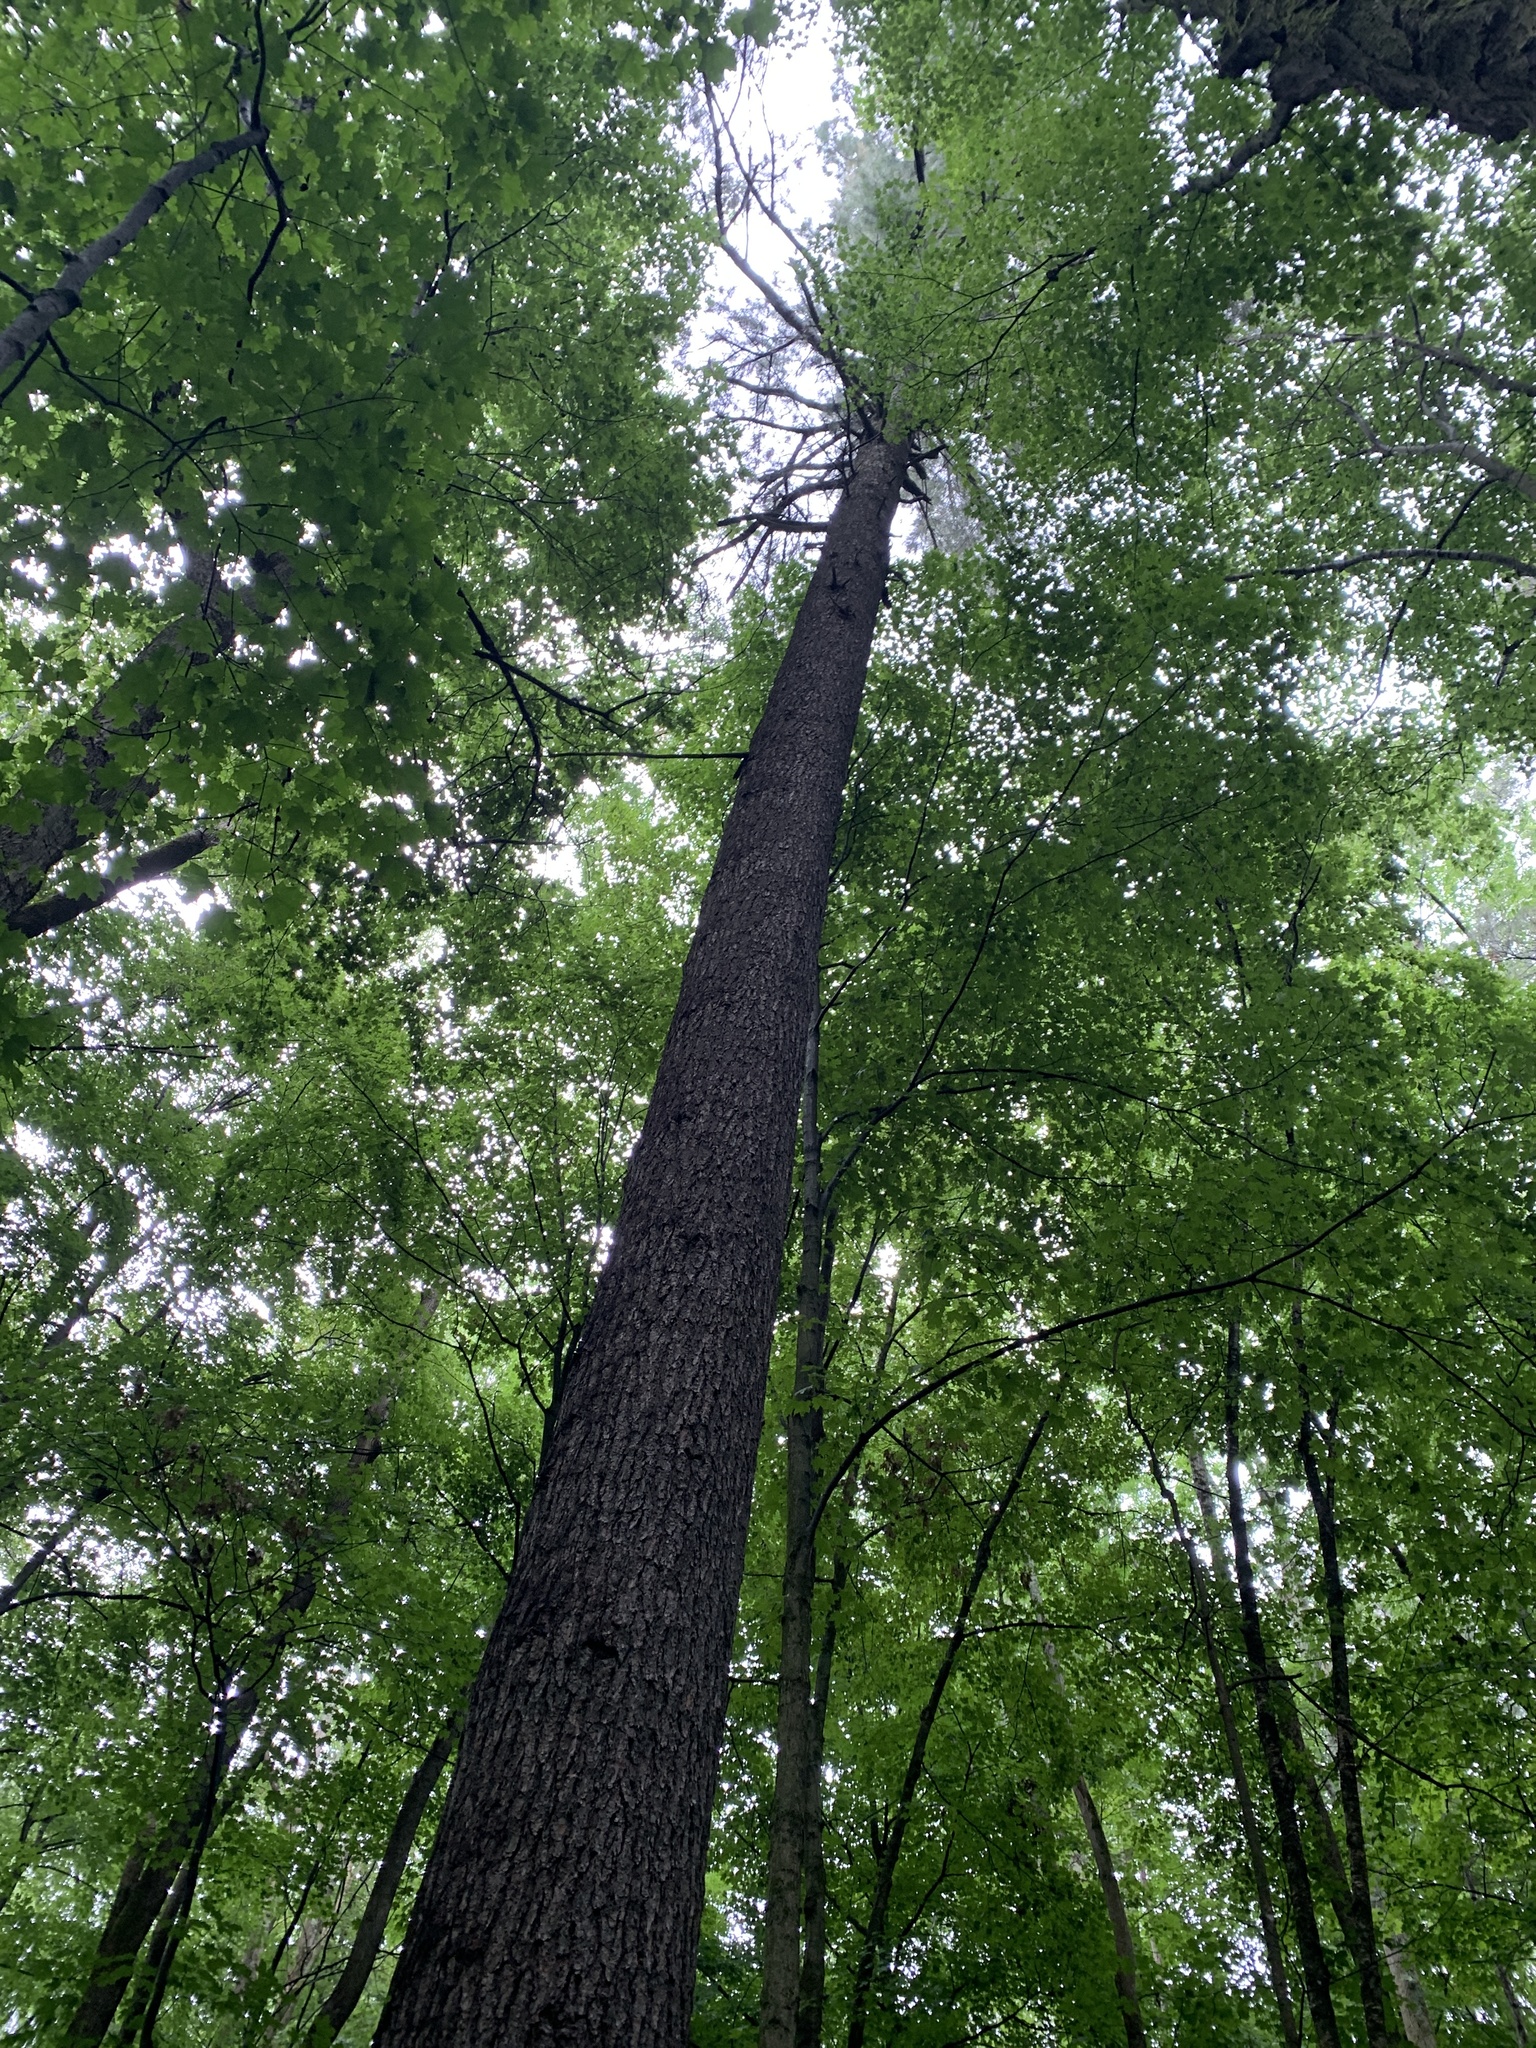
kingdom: Plantae
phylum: Tracheophyta
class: Pinopsida
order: Pinales
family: Pinaceae
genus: Pinus
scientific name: Pinus strobus
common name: Weymouth pine
